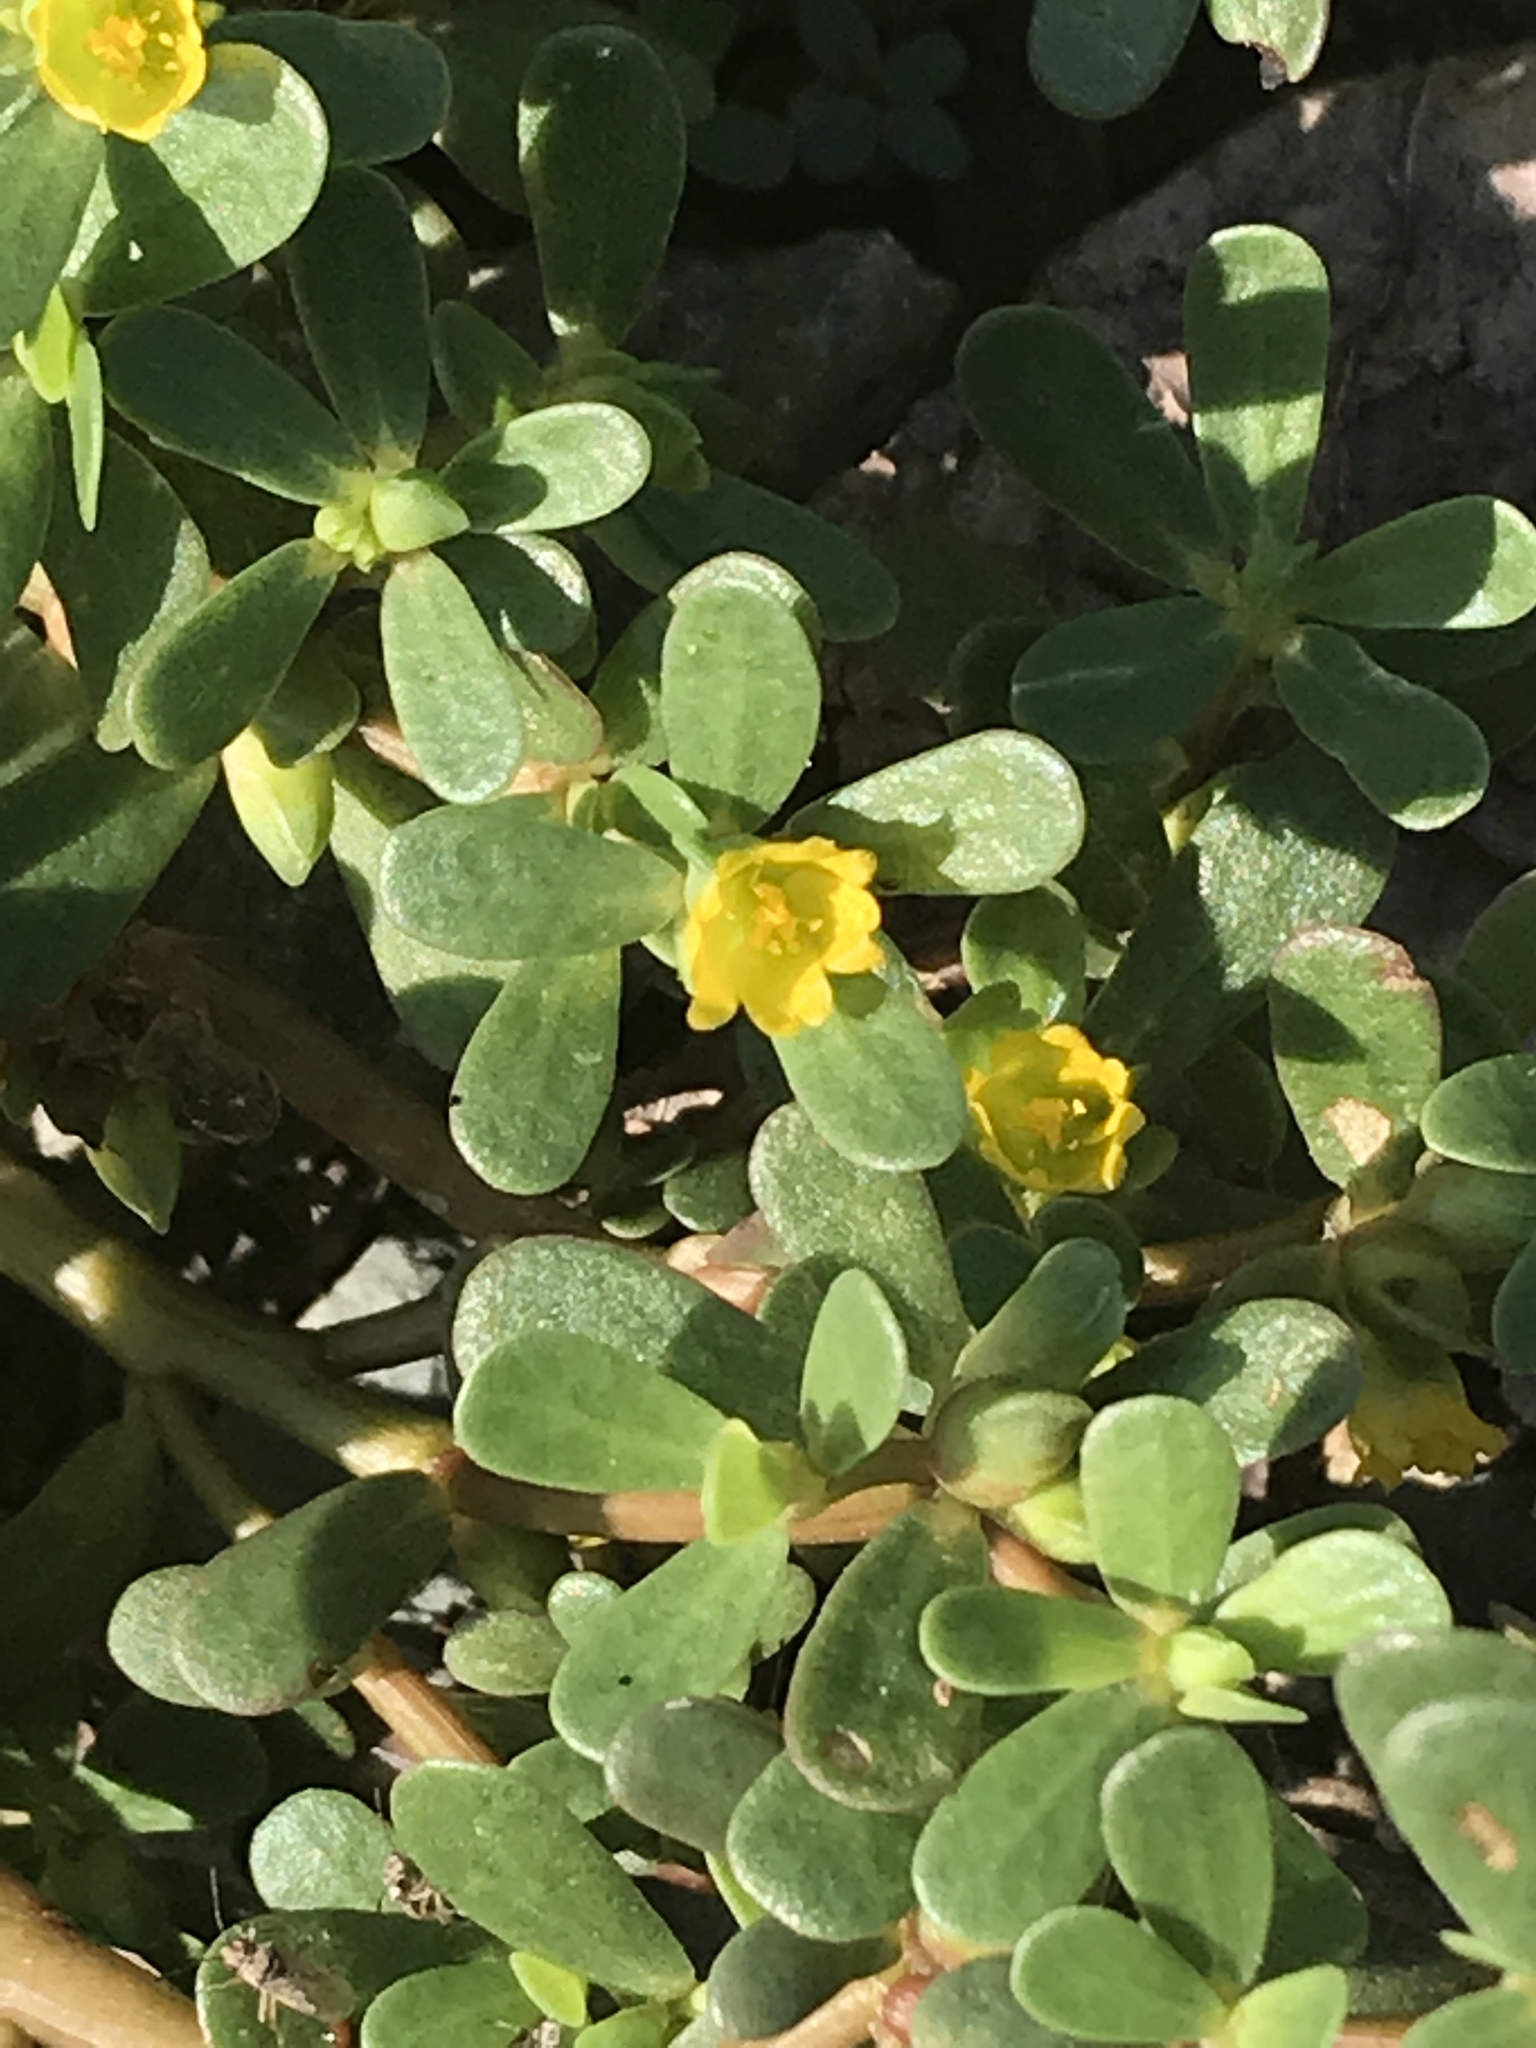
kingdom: Plantae
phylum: Tracheophyta
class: Magnoliopsida
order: Caryophyllales
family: Portulacaceae
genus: Portulaca
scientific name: Portulaca oleracea
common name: Common purslane
